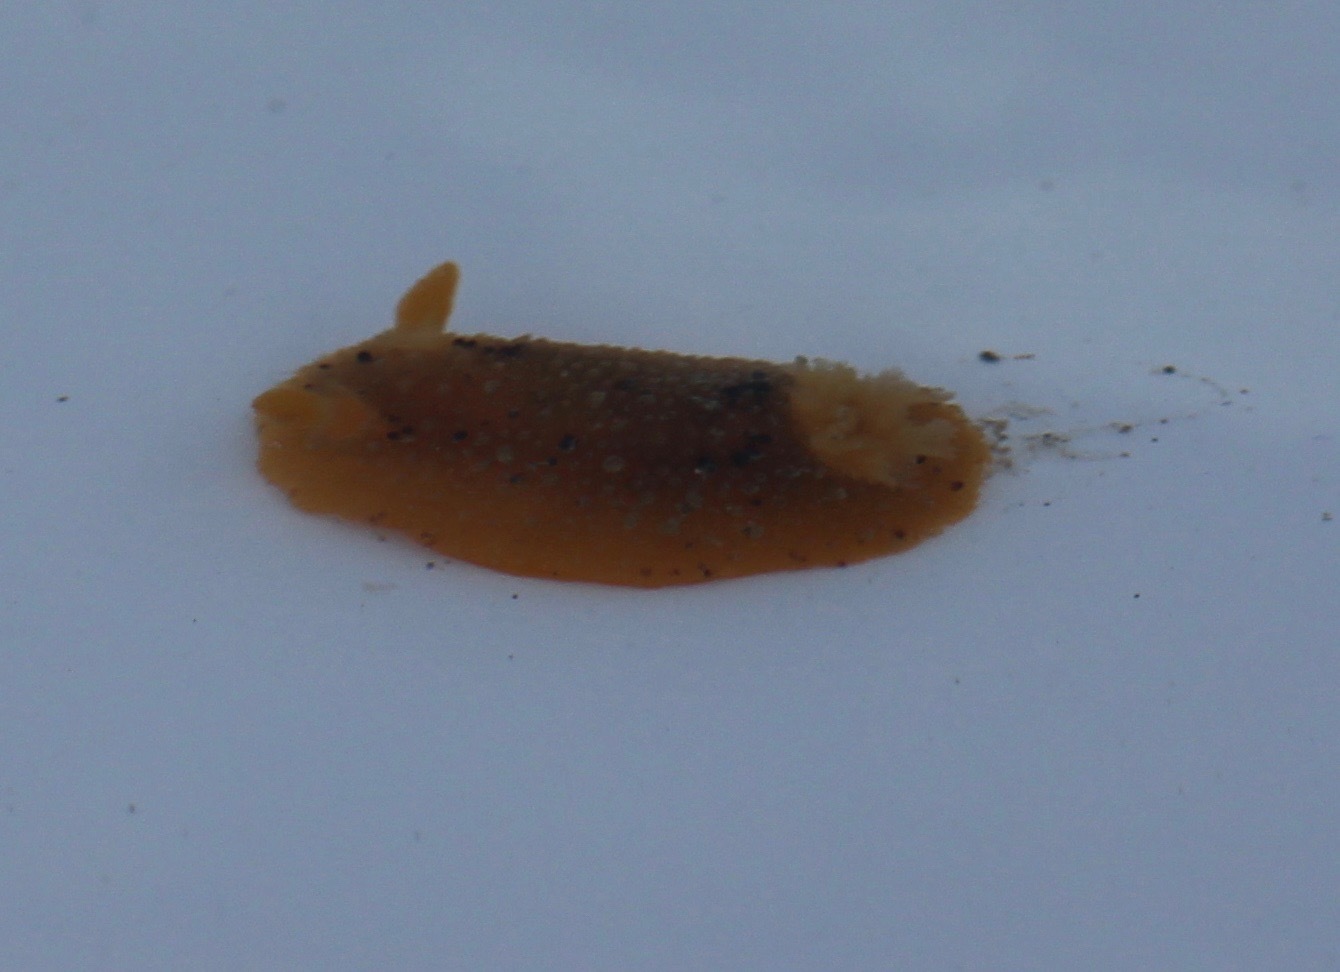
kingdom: Animalia
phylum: Mollusca
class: Gastropoda
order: Nudibranchia
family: Dorididae
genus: Doris
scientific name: Doris montereyensis
